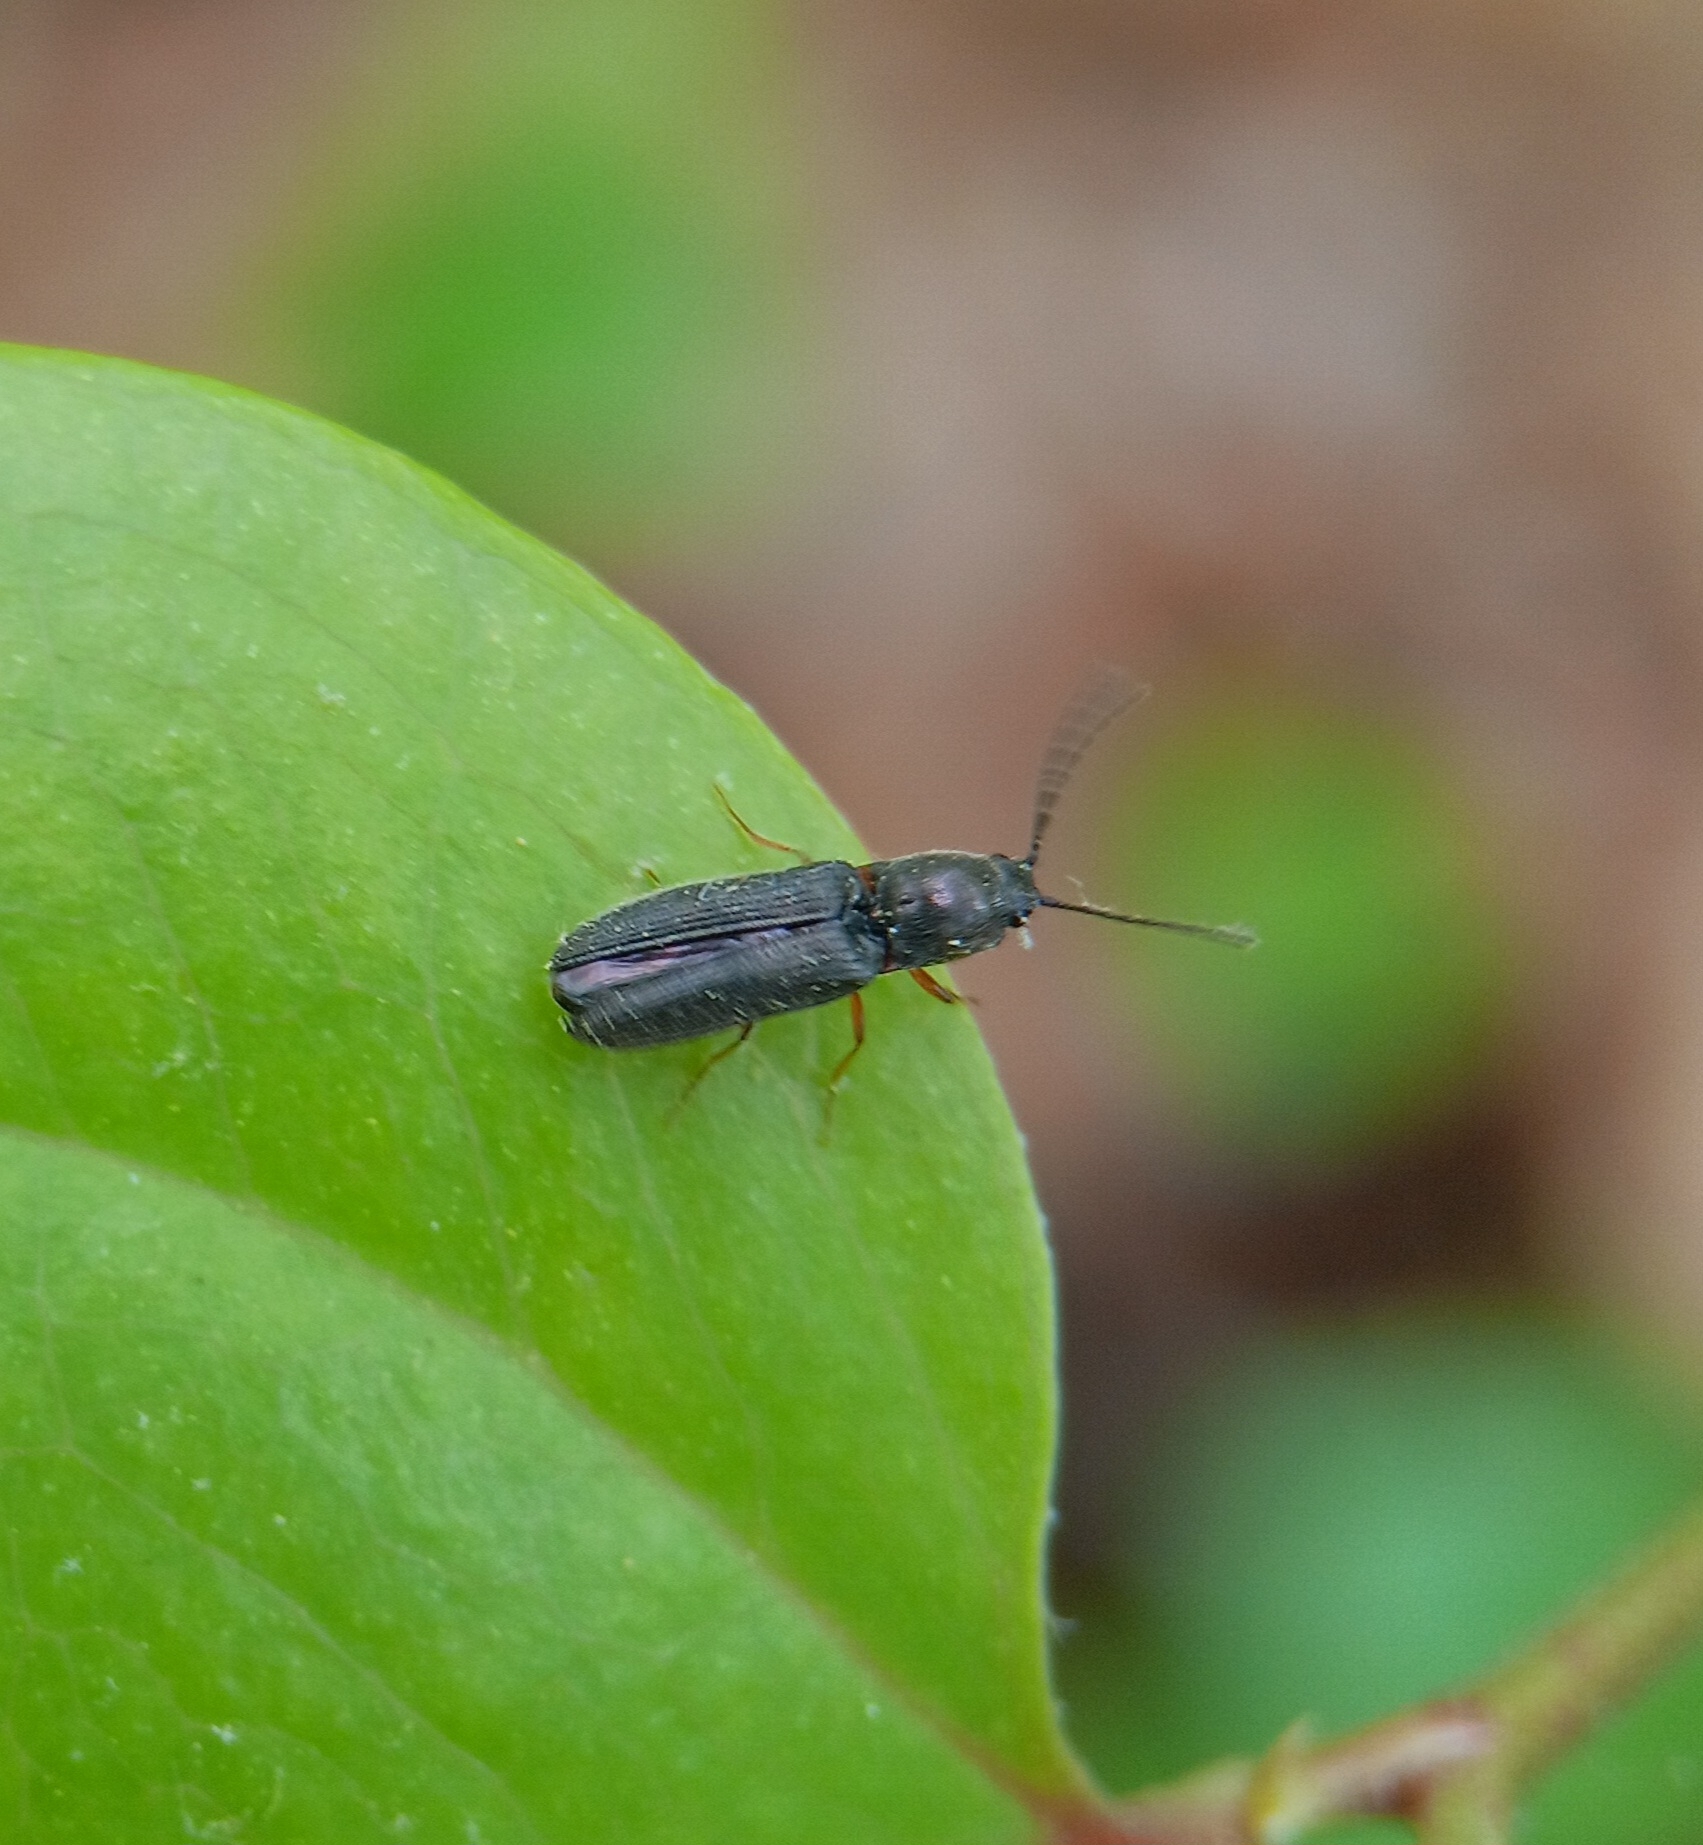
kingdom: Animalia
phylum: Arthropoda
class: Insecta
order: Coleoptera
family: Elateridae
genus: Limonius
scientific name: Limonius basilaris
